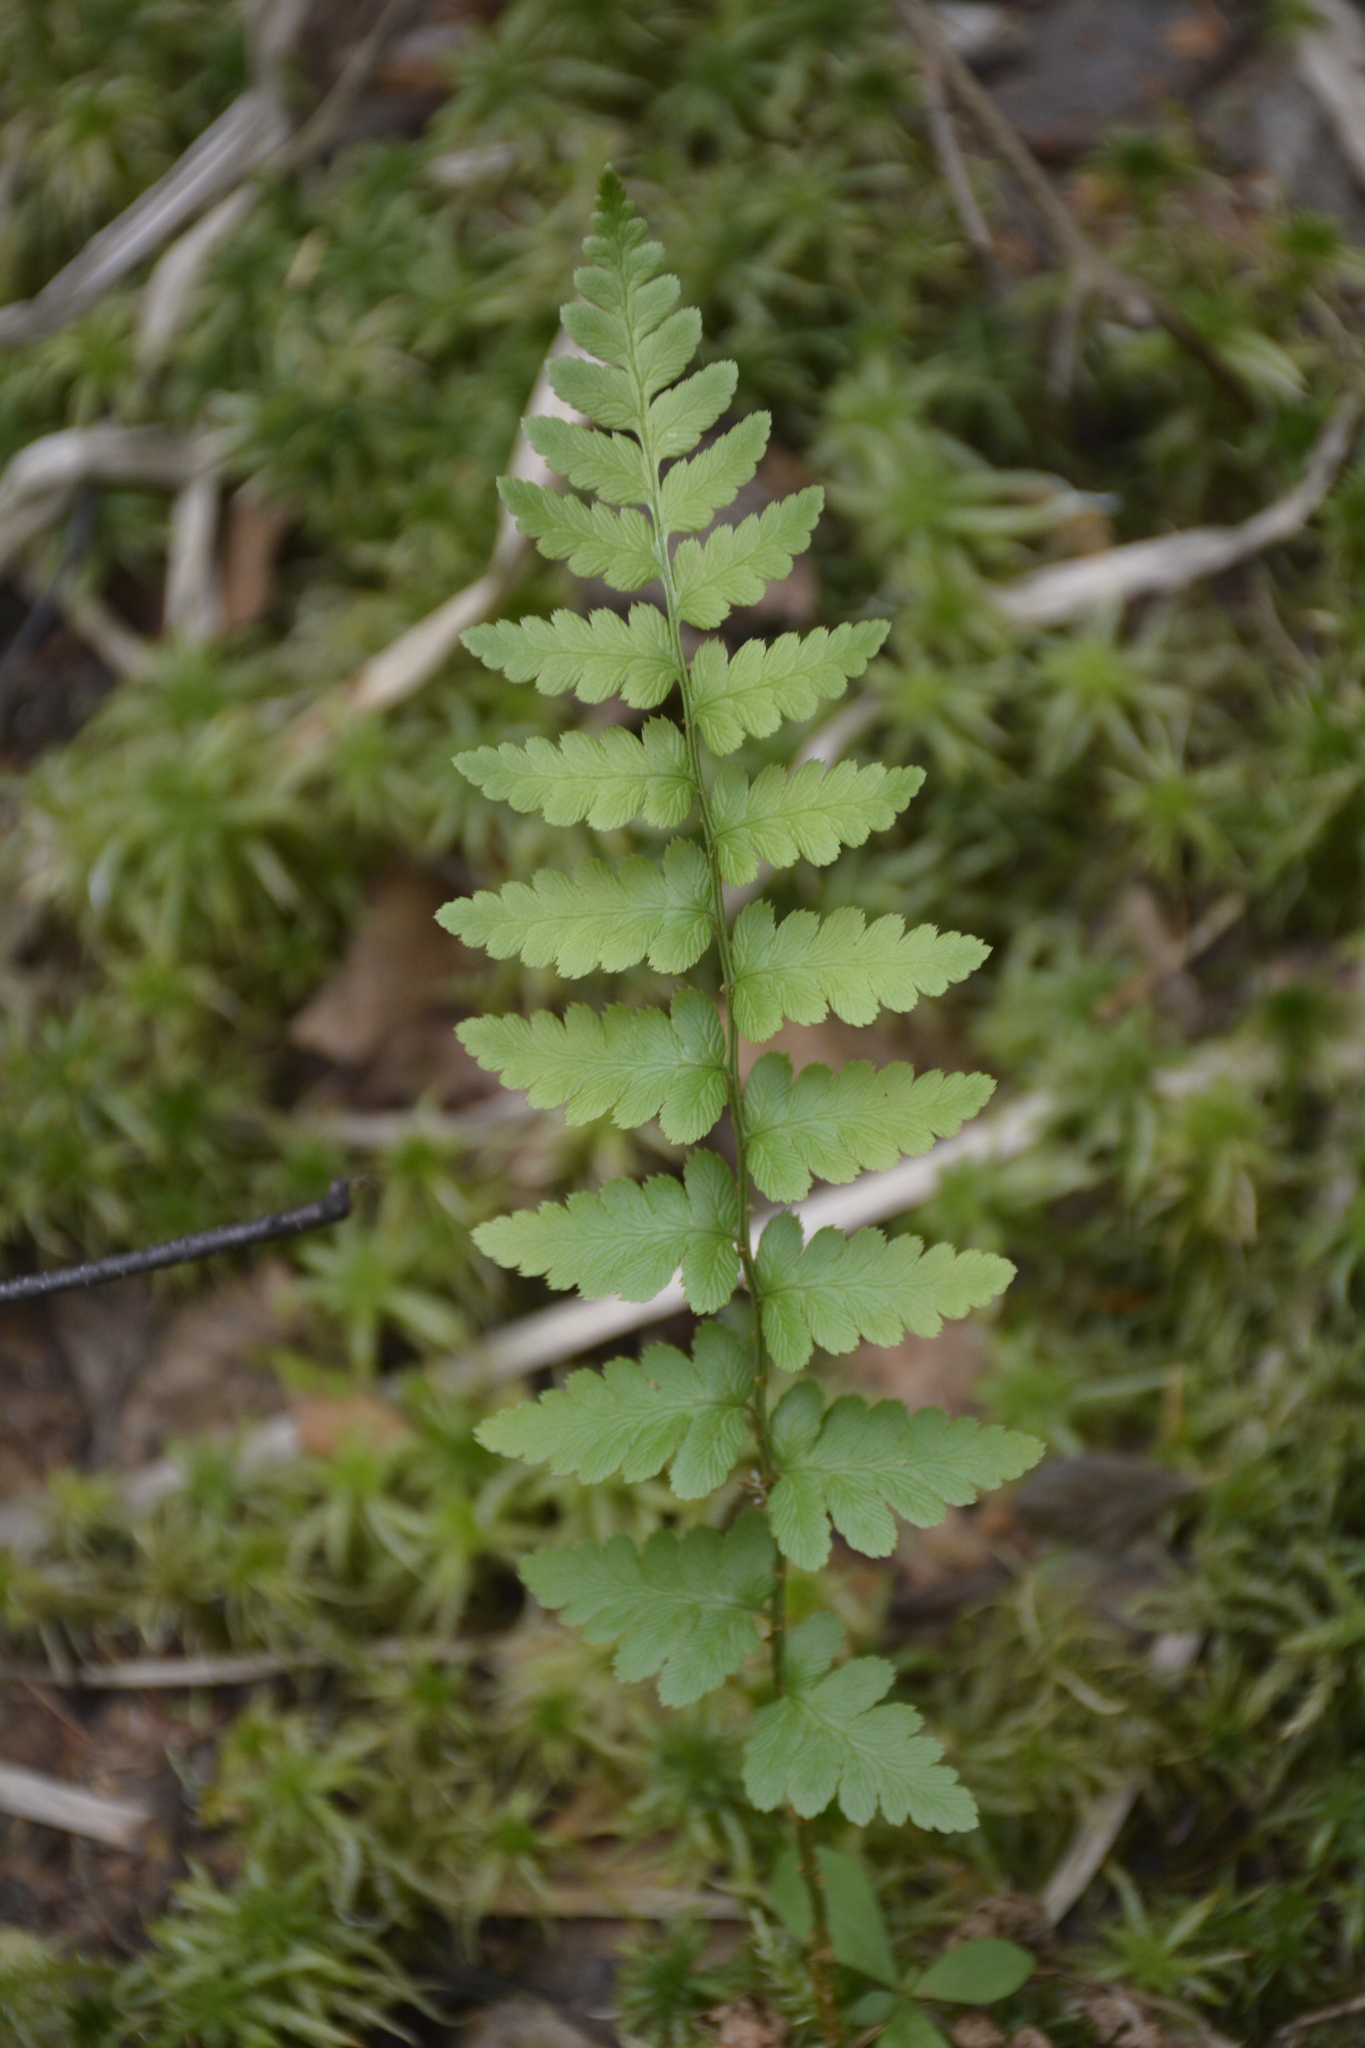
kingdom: Plantae
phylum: Tracheophyta
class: Polypodiopsida
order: Polypodiales
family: Dryopteridaceae
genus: Dryopteris
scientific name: Dryopteris cristata
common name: Crested wood fern
